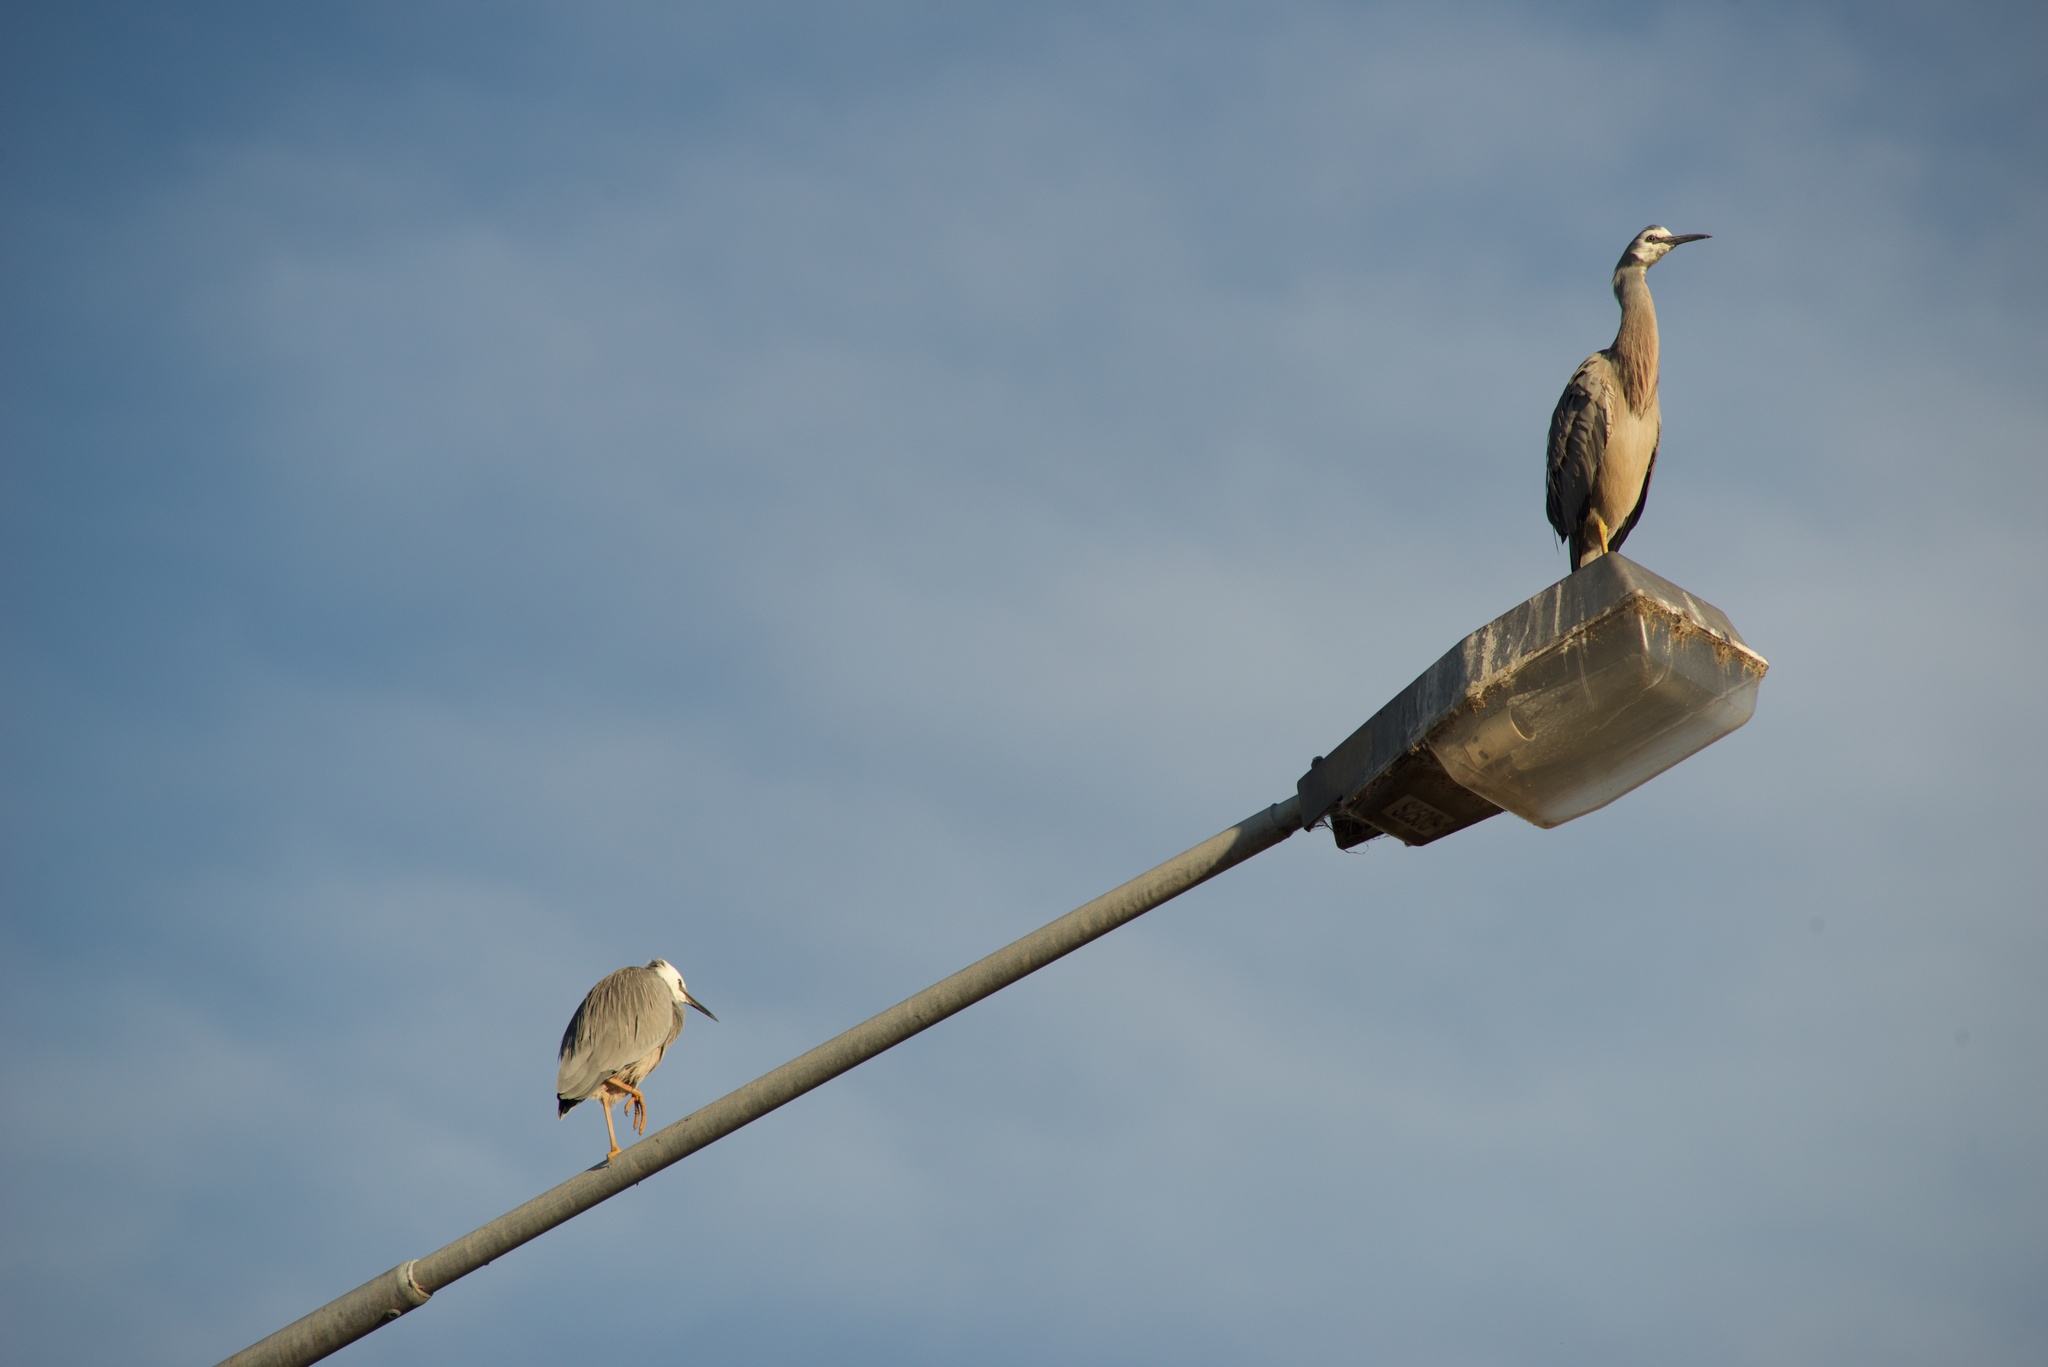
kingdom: Animalia
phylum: Chordata
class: Aves
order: Pelecaniformes
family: Ardeidae
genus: Egretta
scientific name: Egretta novaehollandiae
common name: White-faced heron
